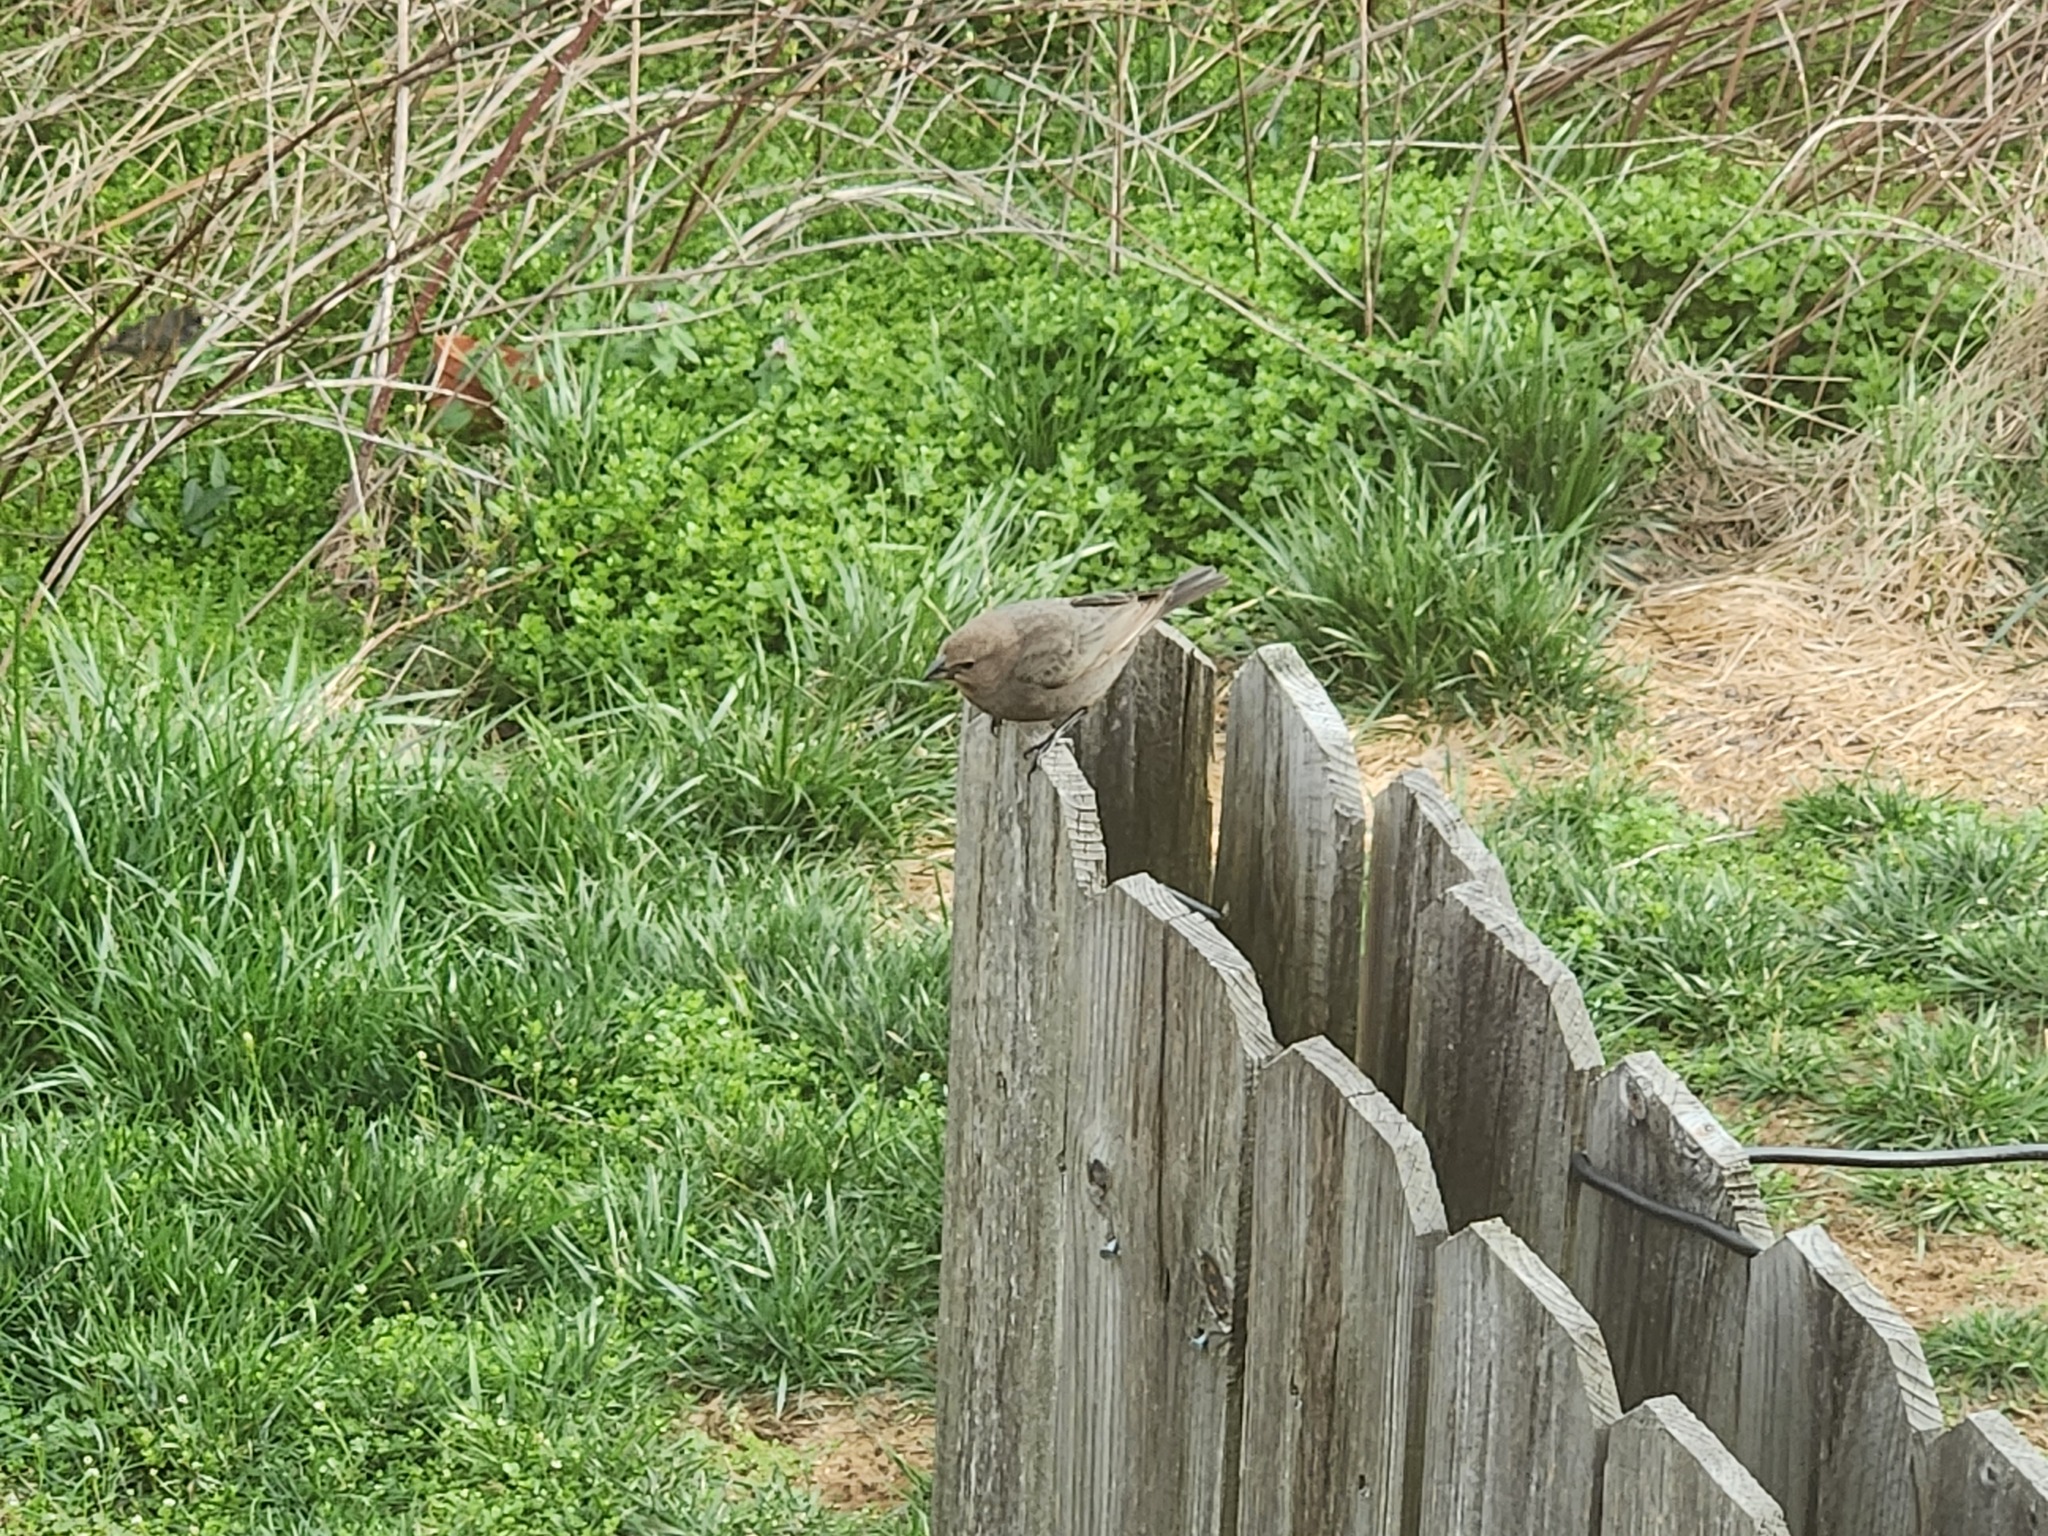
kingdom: Animalia
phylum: Chordata
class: Aves
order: Passeriformes
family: Icteridae
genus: Molothrus
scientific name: Molothrus ater
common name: Brown-headed cowbird
